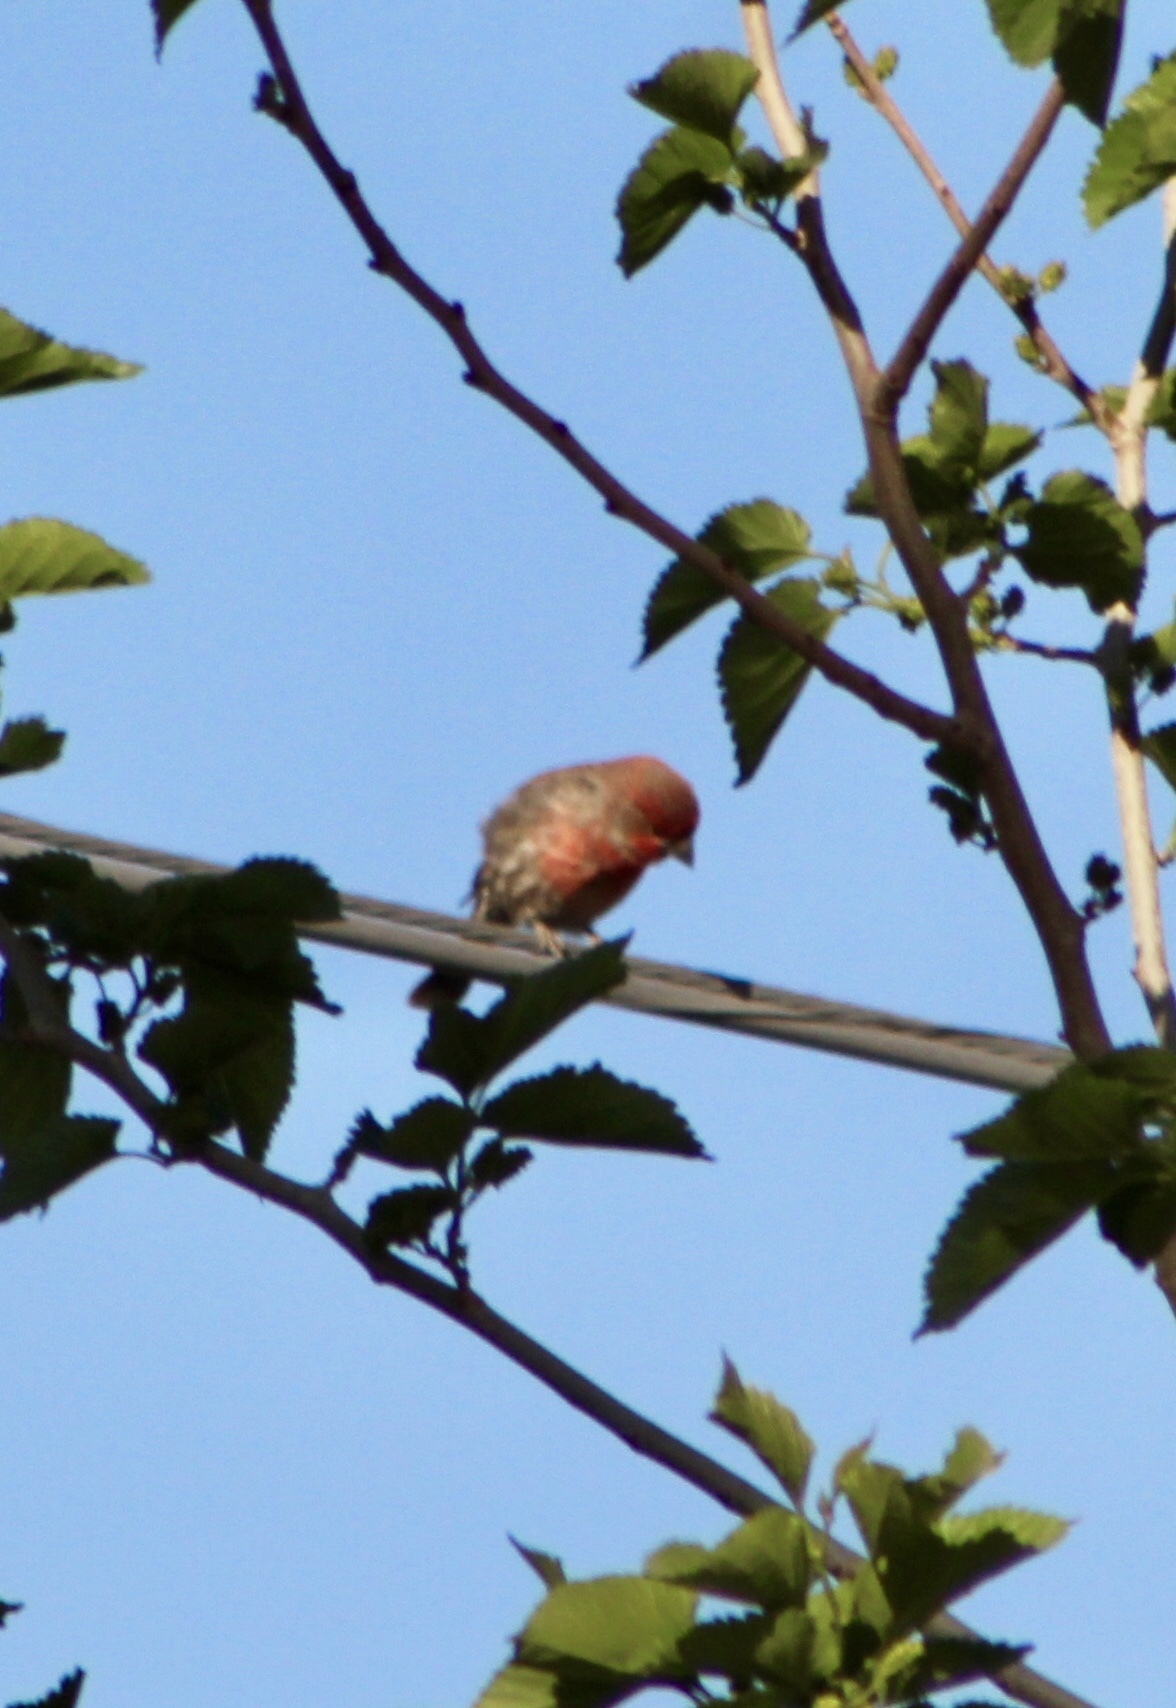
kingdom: Animalia
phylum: Chordata
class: Aves
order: Passeriformes
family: Fringillidae
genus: Haemorhous
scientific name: Haemorhous mexicanus
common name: House finch
